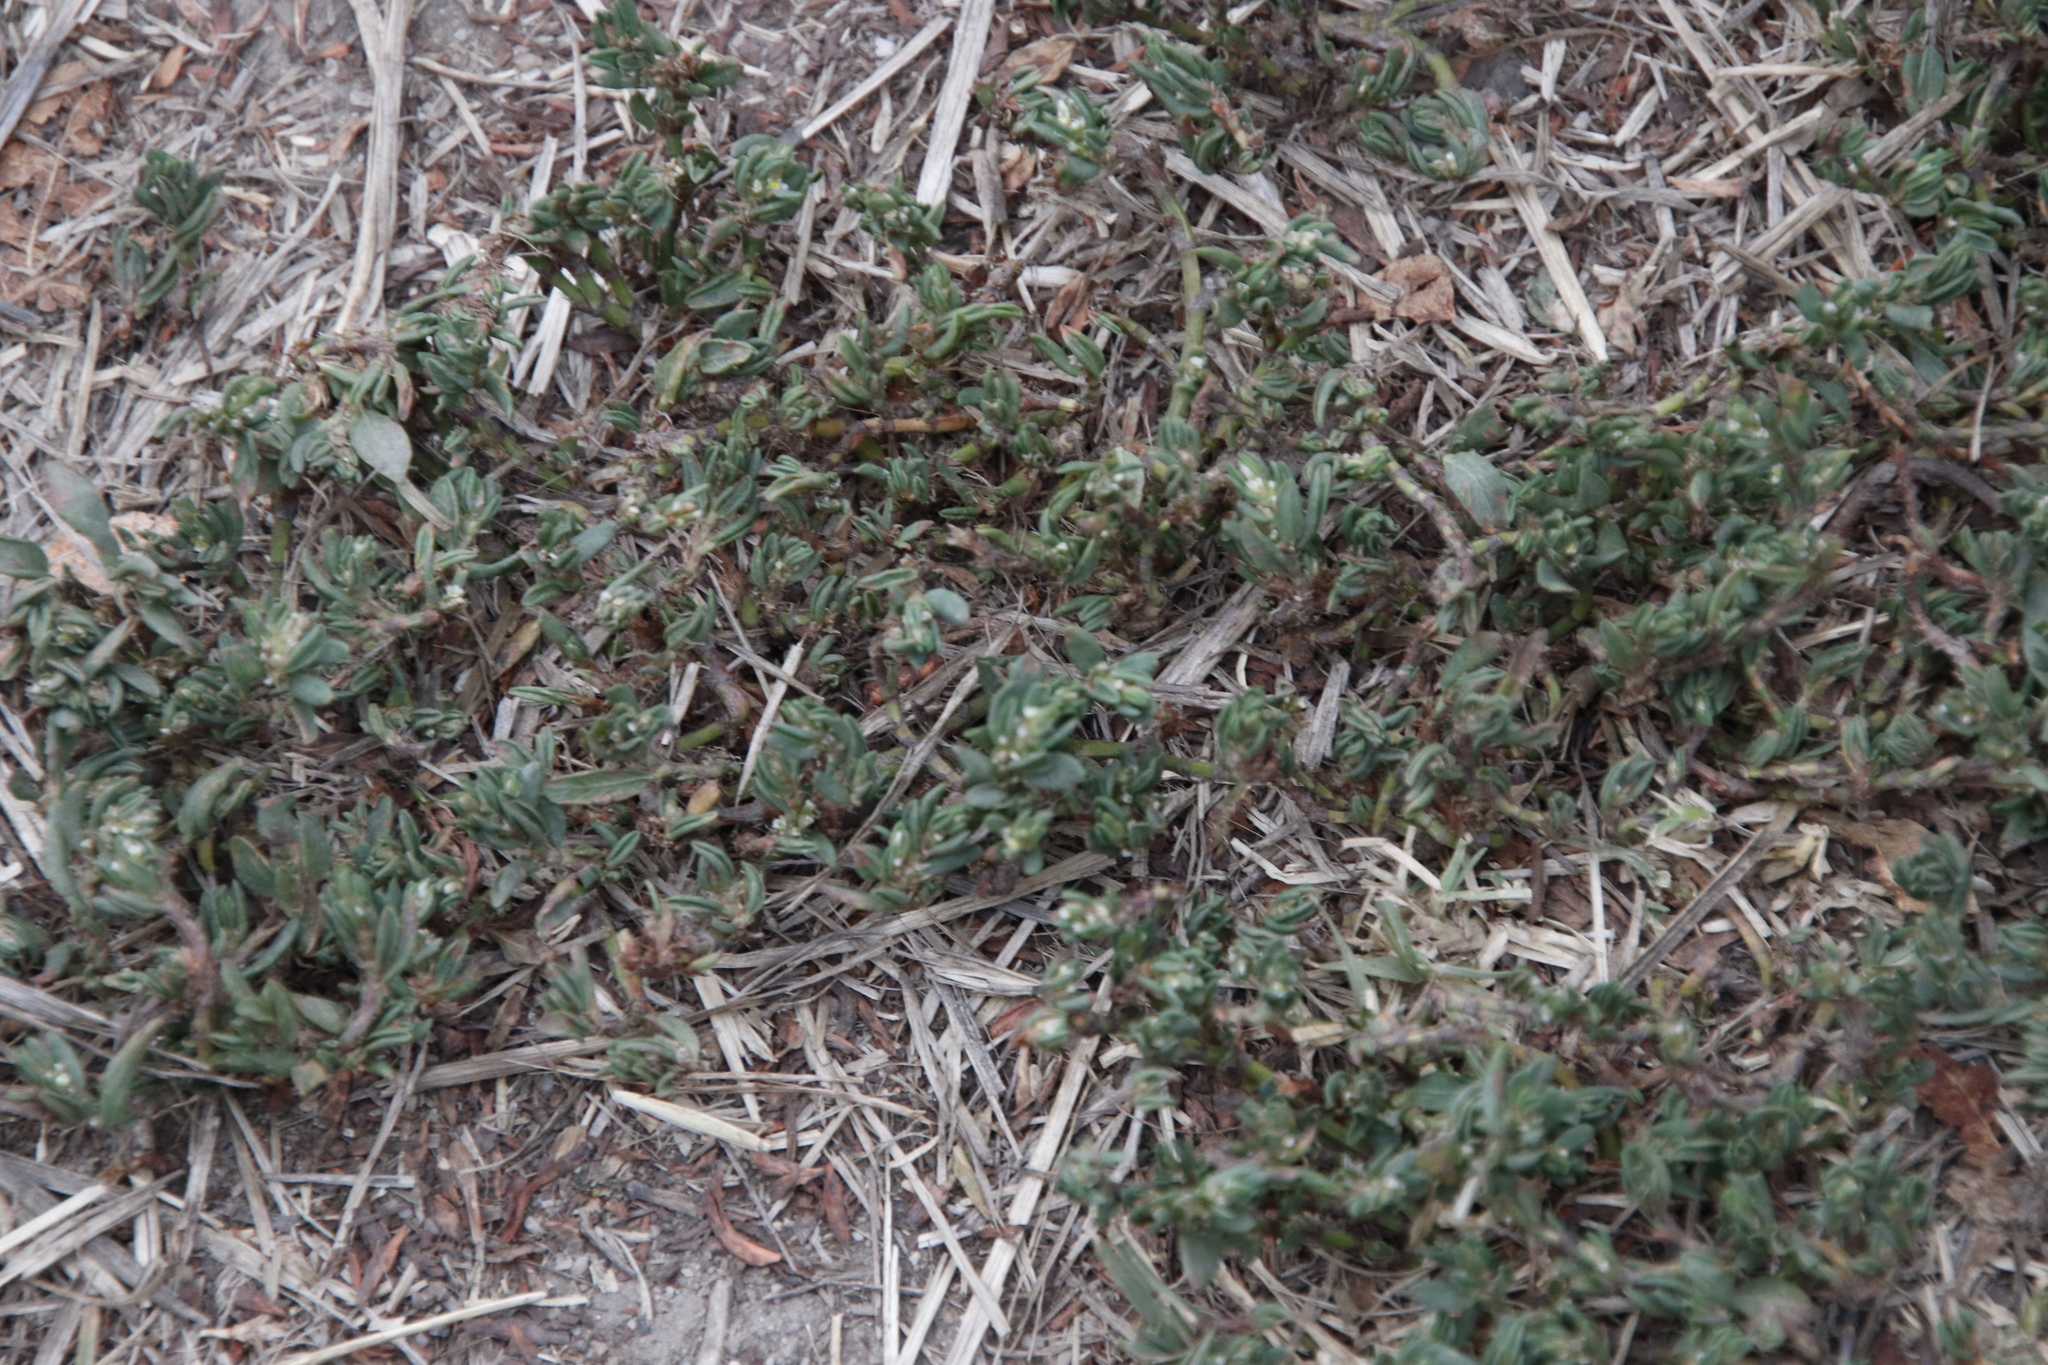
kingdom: Plantae
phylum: Tracheophyta
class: Magnoliopsida
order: Caryophyllales
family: Polygonaceae
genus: Polygonum
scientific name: Polygonum aviculare
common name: Prostrate knotweed
